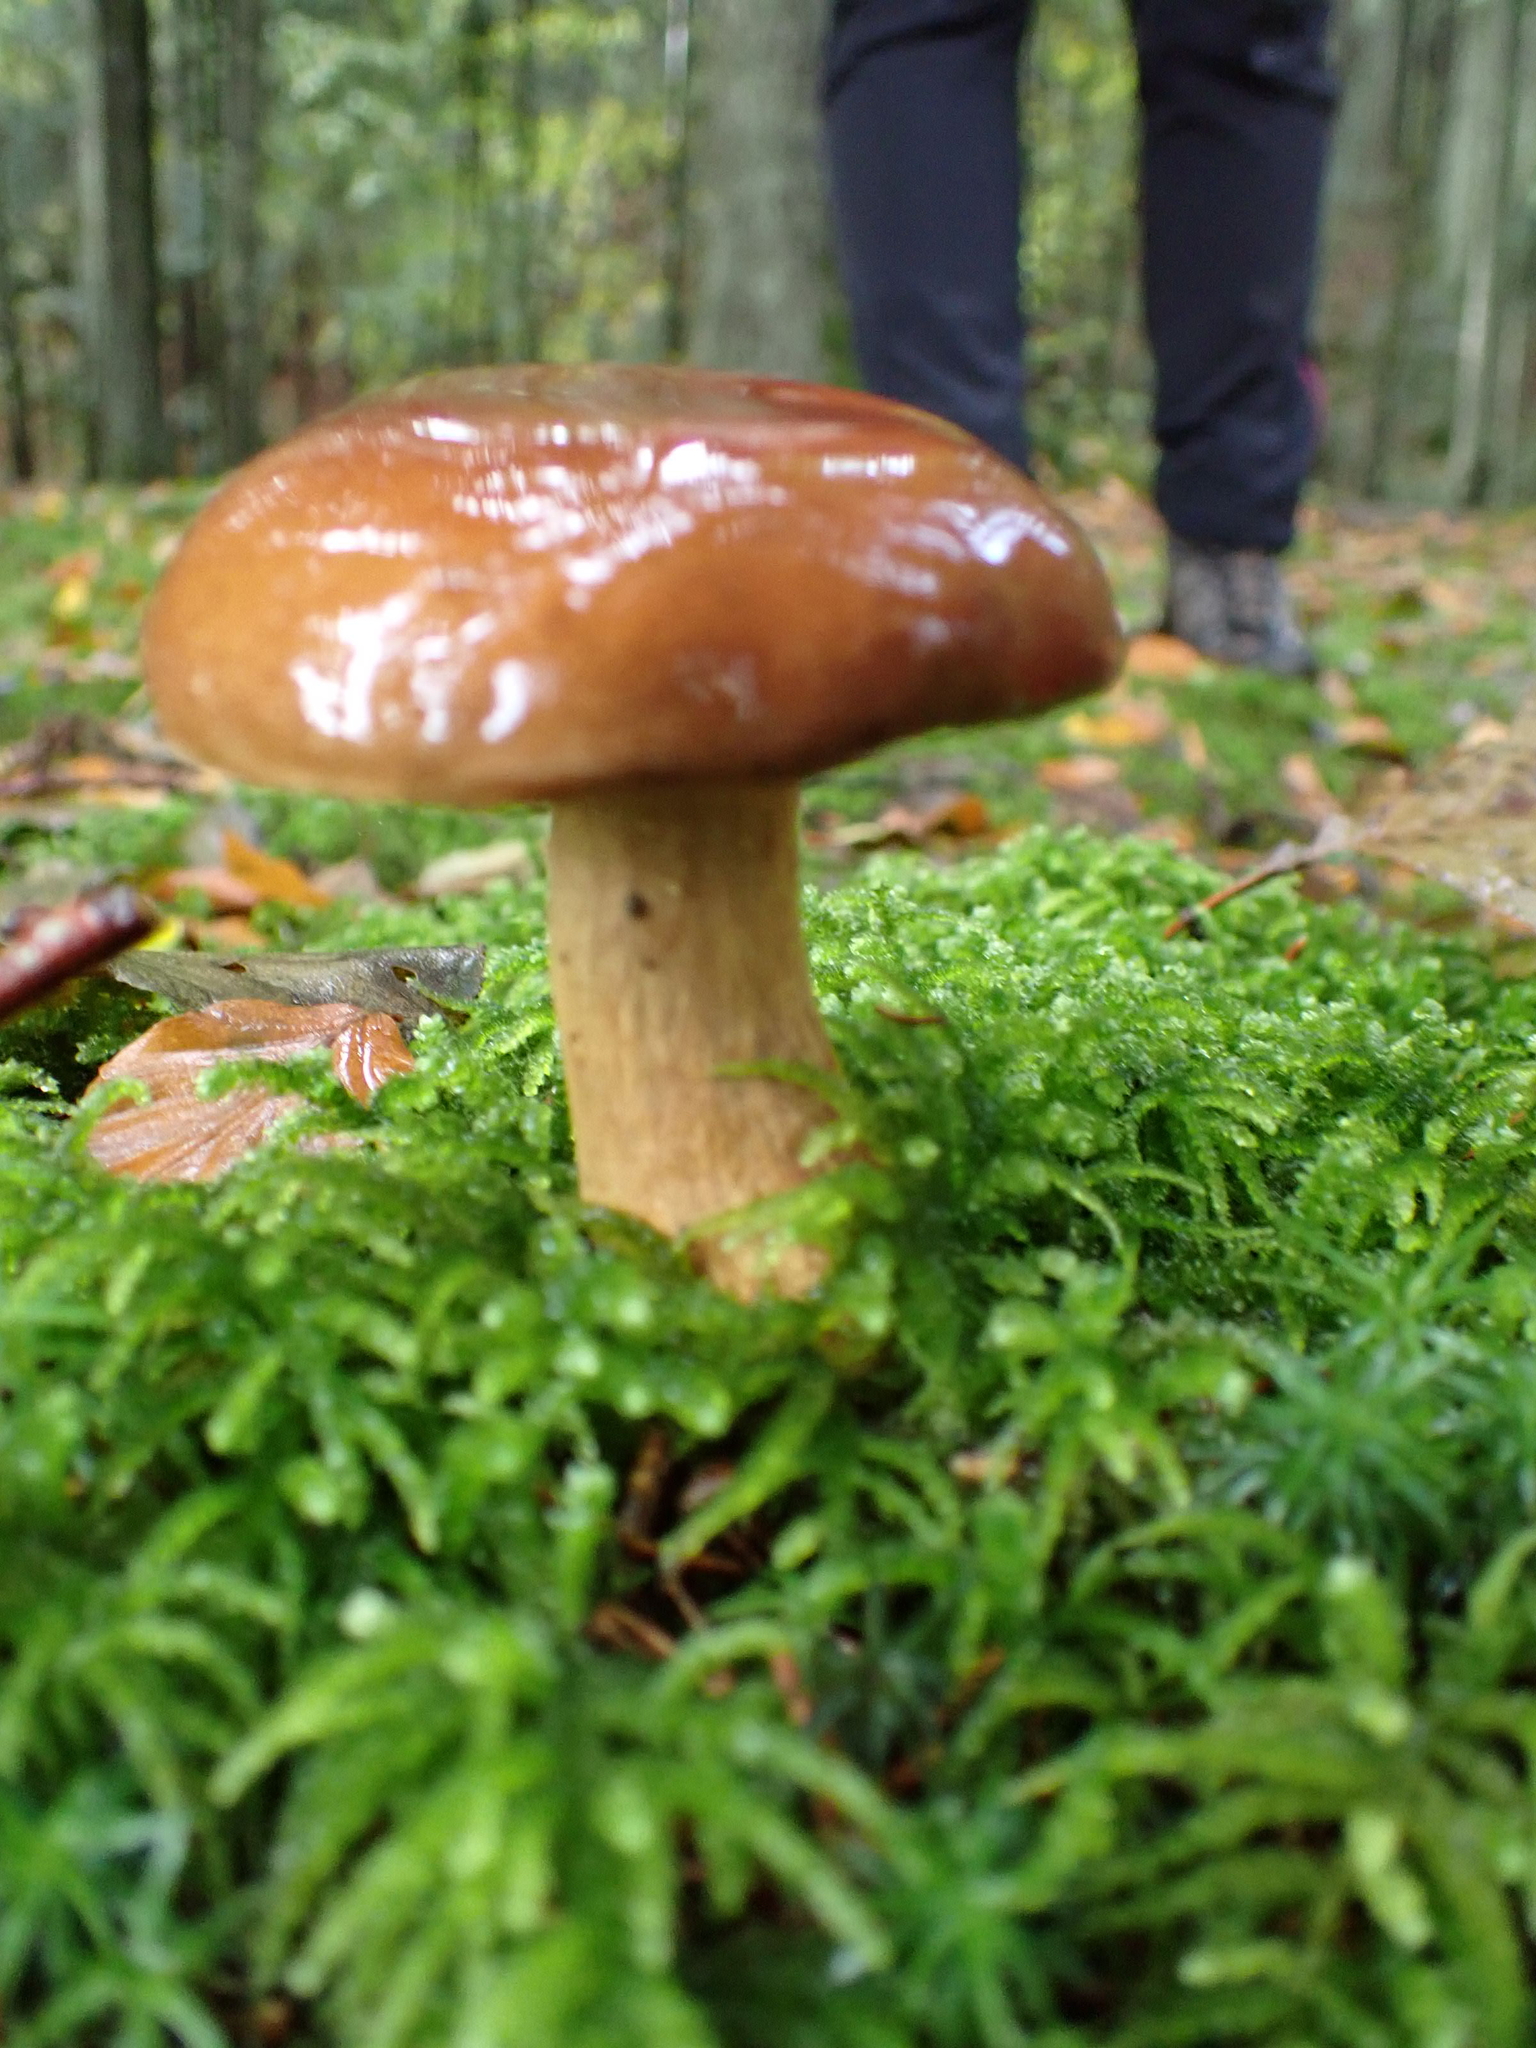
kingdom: Fungi
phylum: Basidiomycota
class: Agaricomycetes
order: Boletales
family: Boletaceae
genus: Imleria
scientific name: Imleria badia
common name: Bay bolete
